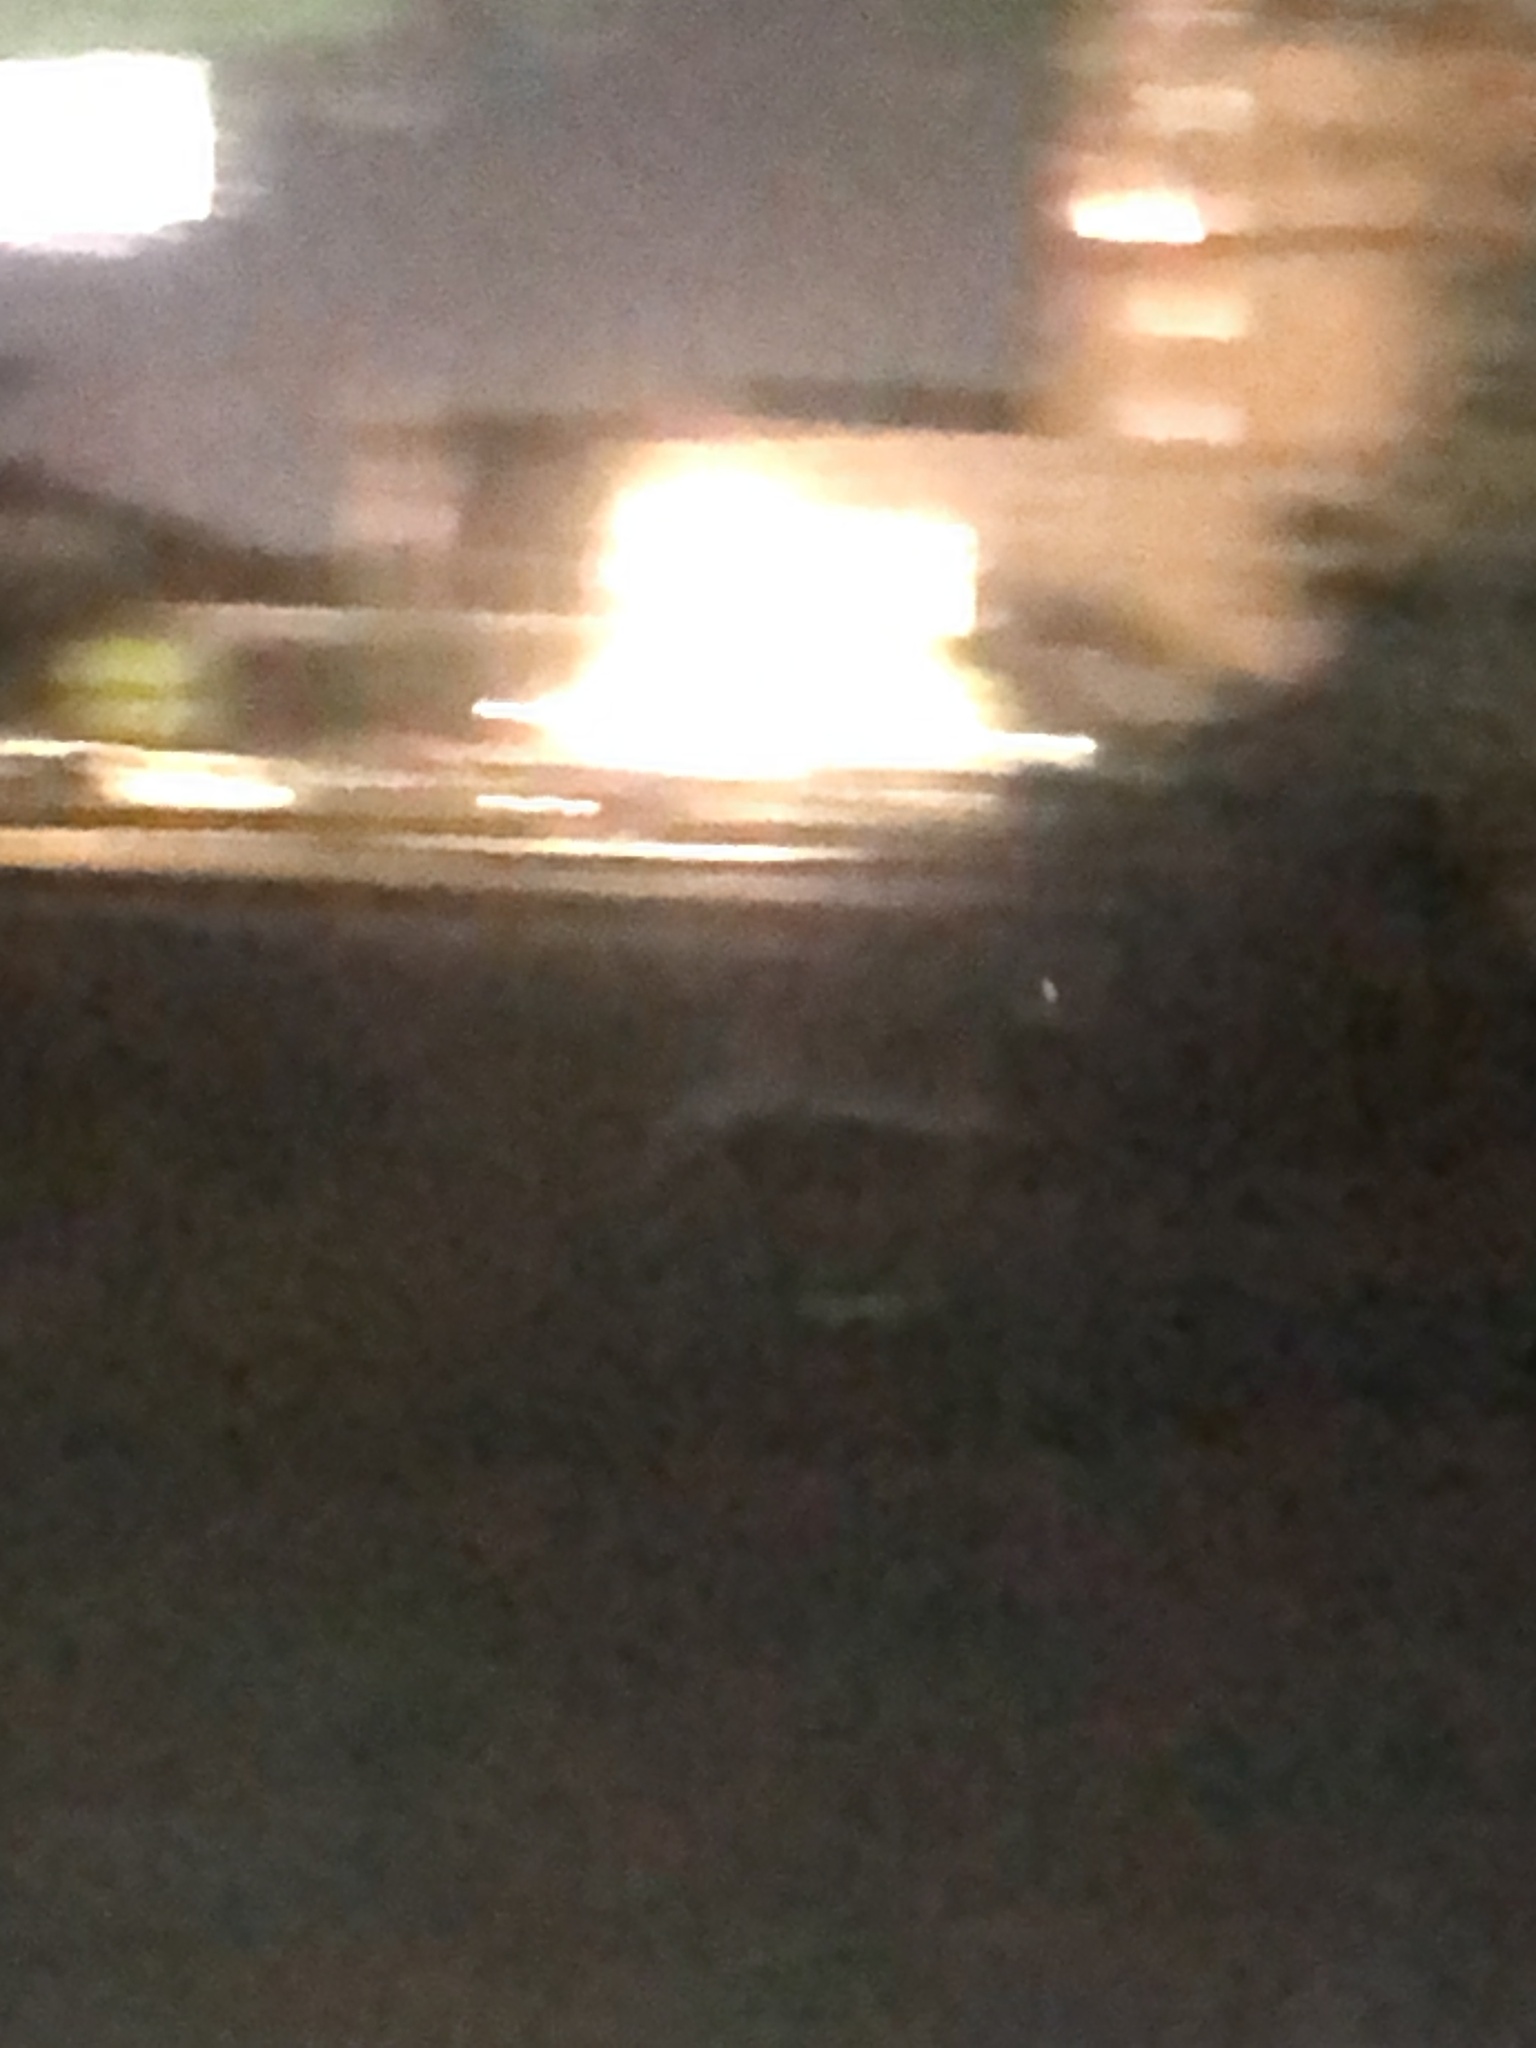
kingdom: Animalia
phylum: Chordata
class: Mammalia
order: Artiodactyla
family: Cervidae
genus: Odocoileus
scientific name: Odocoileus virginianus
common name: White-tailed deer
